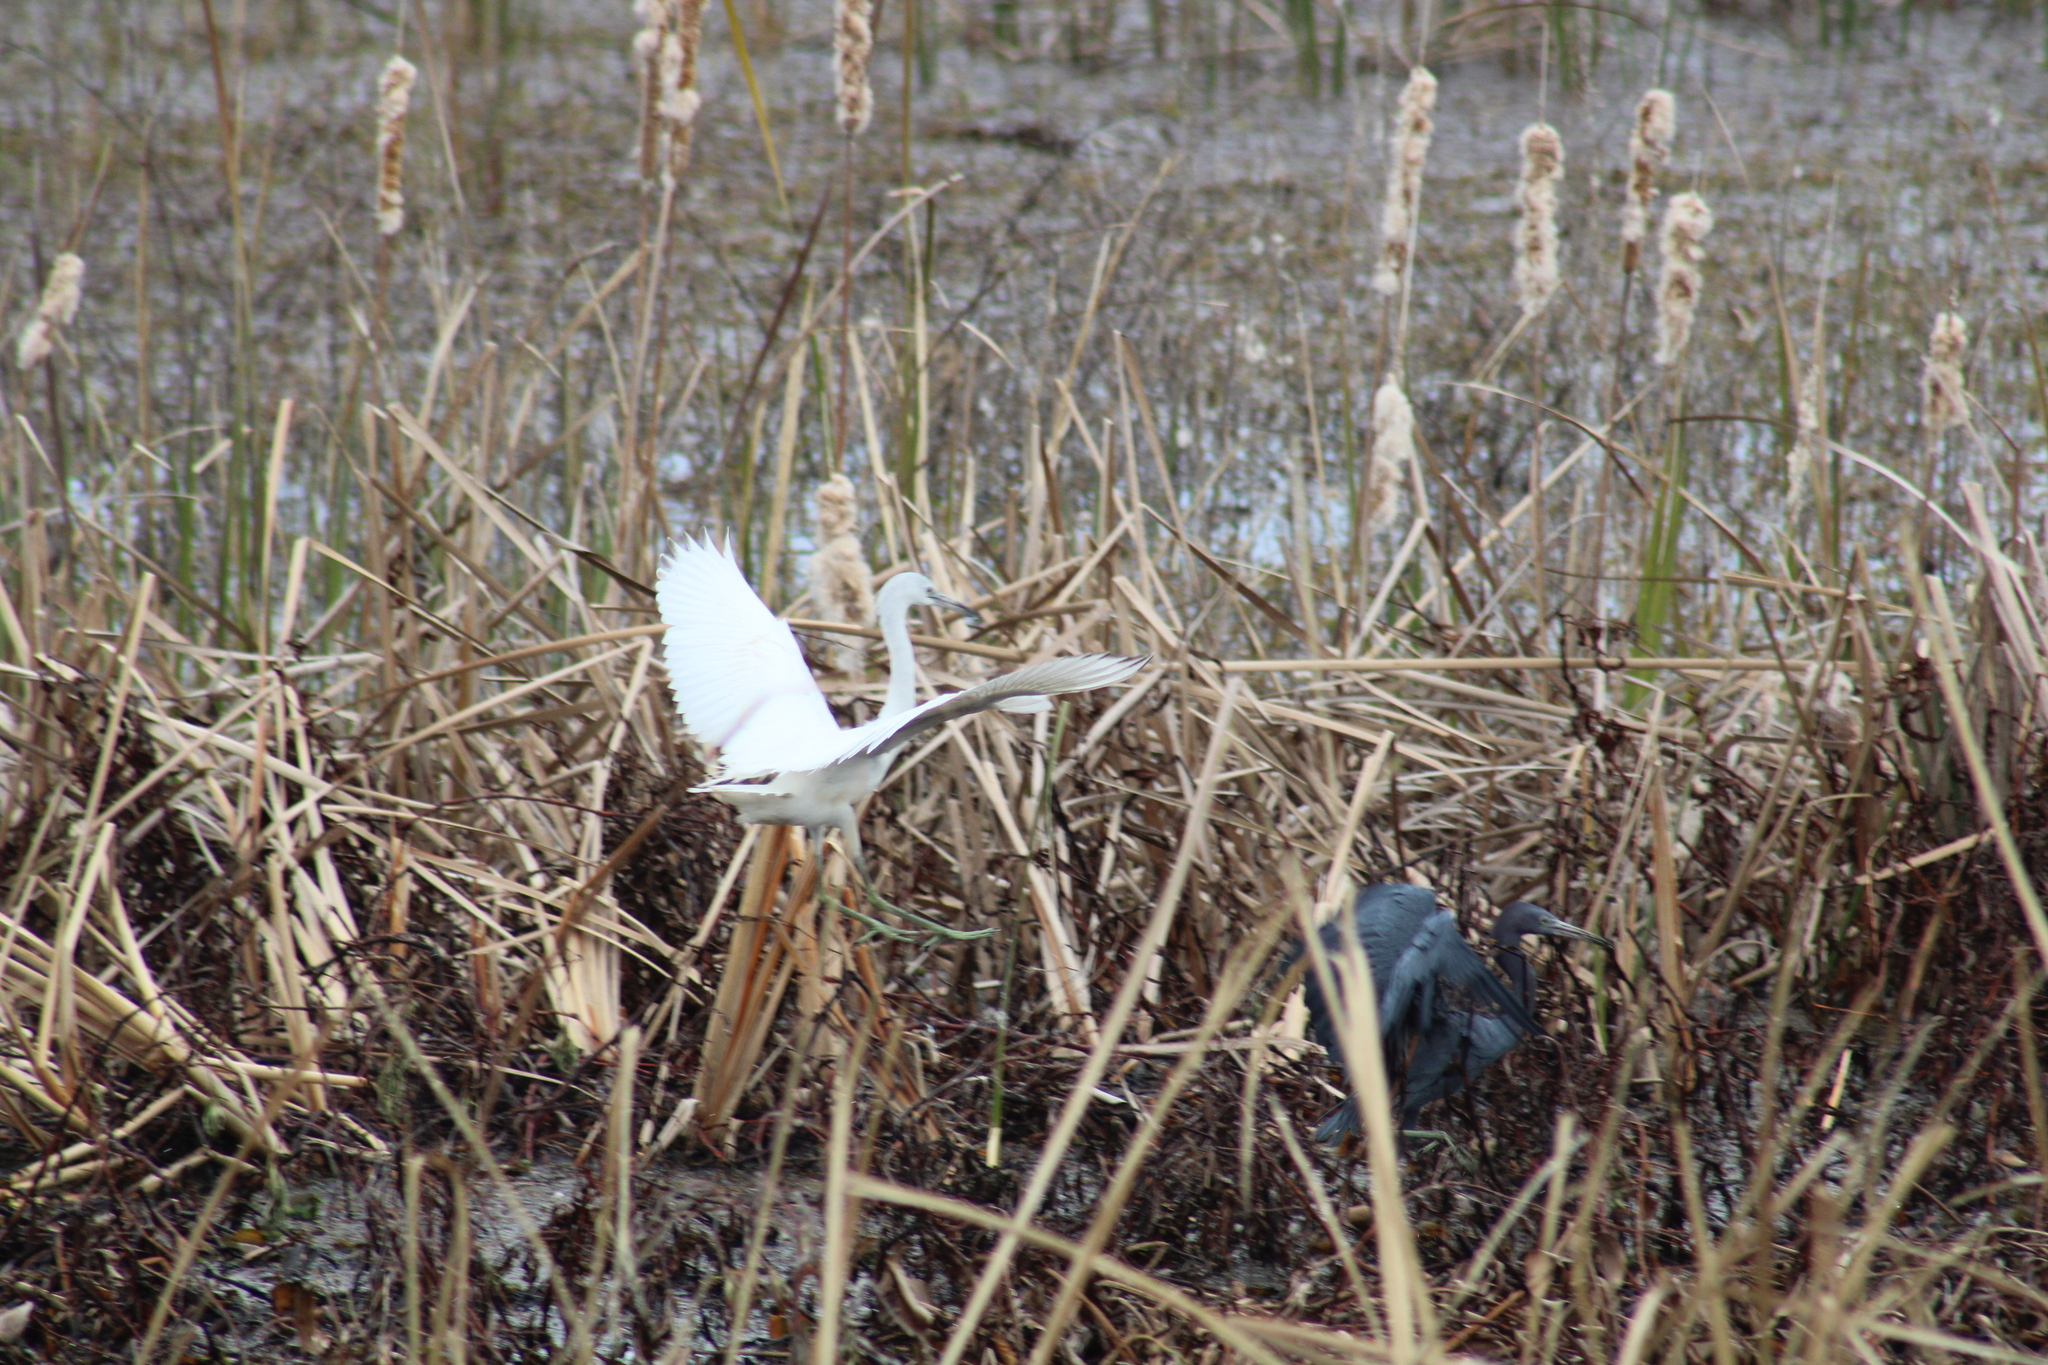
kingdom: Animalia
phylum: Chordata
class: Aves
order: Pelecaniformes
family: Ardeidae
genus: Egretta
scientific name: Egretta caerulea
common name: Little blue heron
